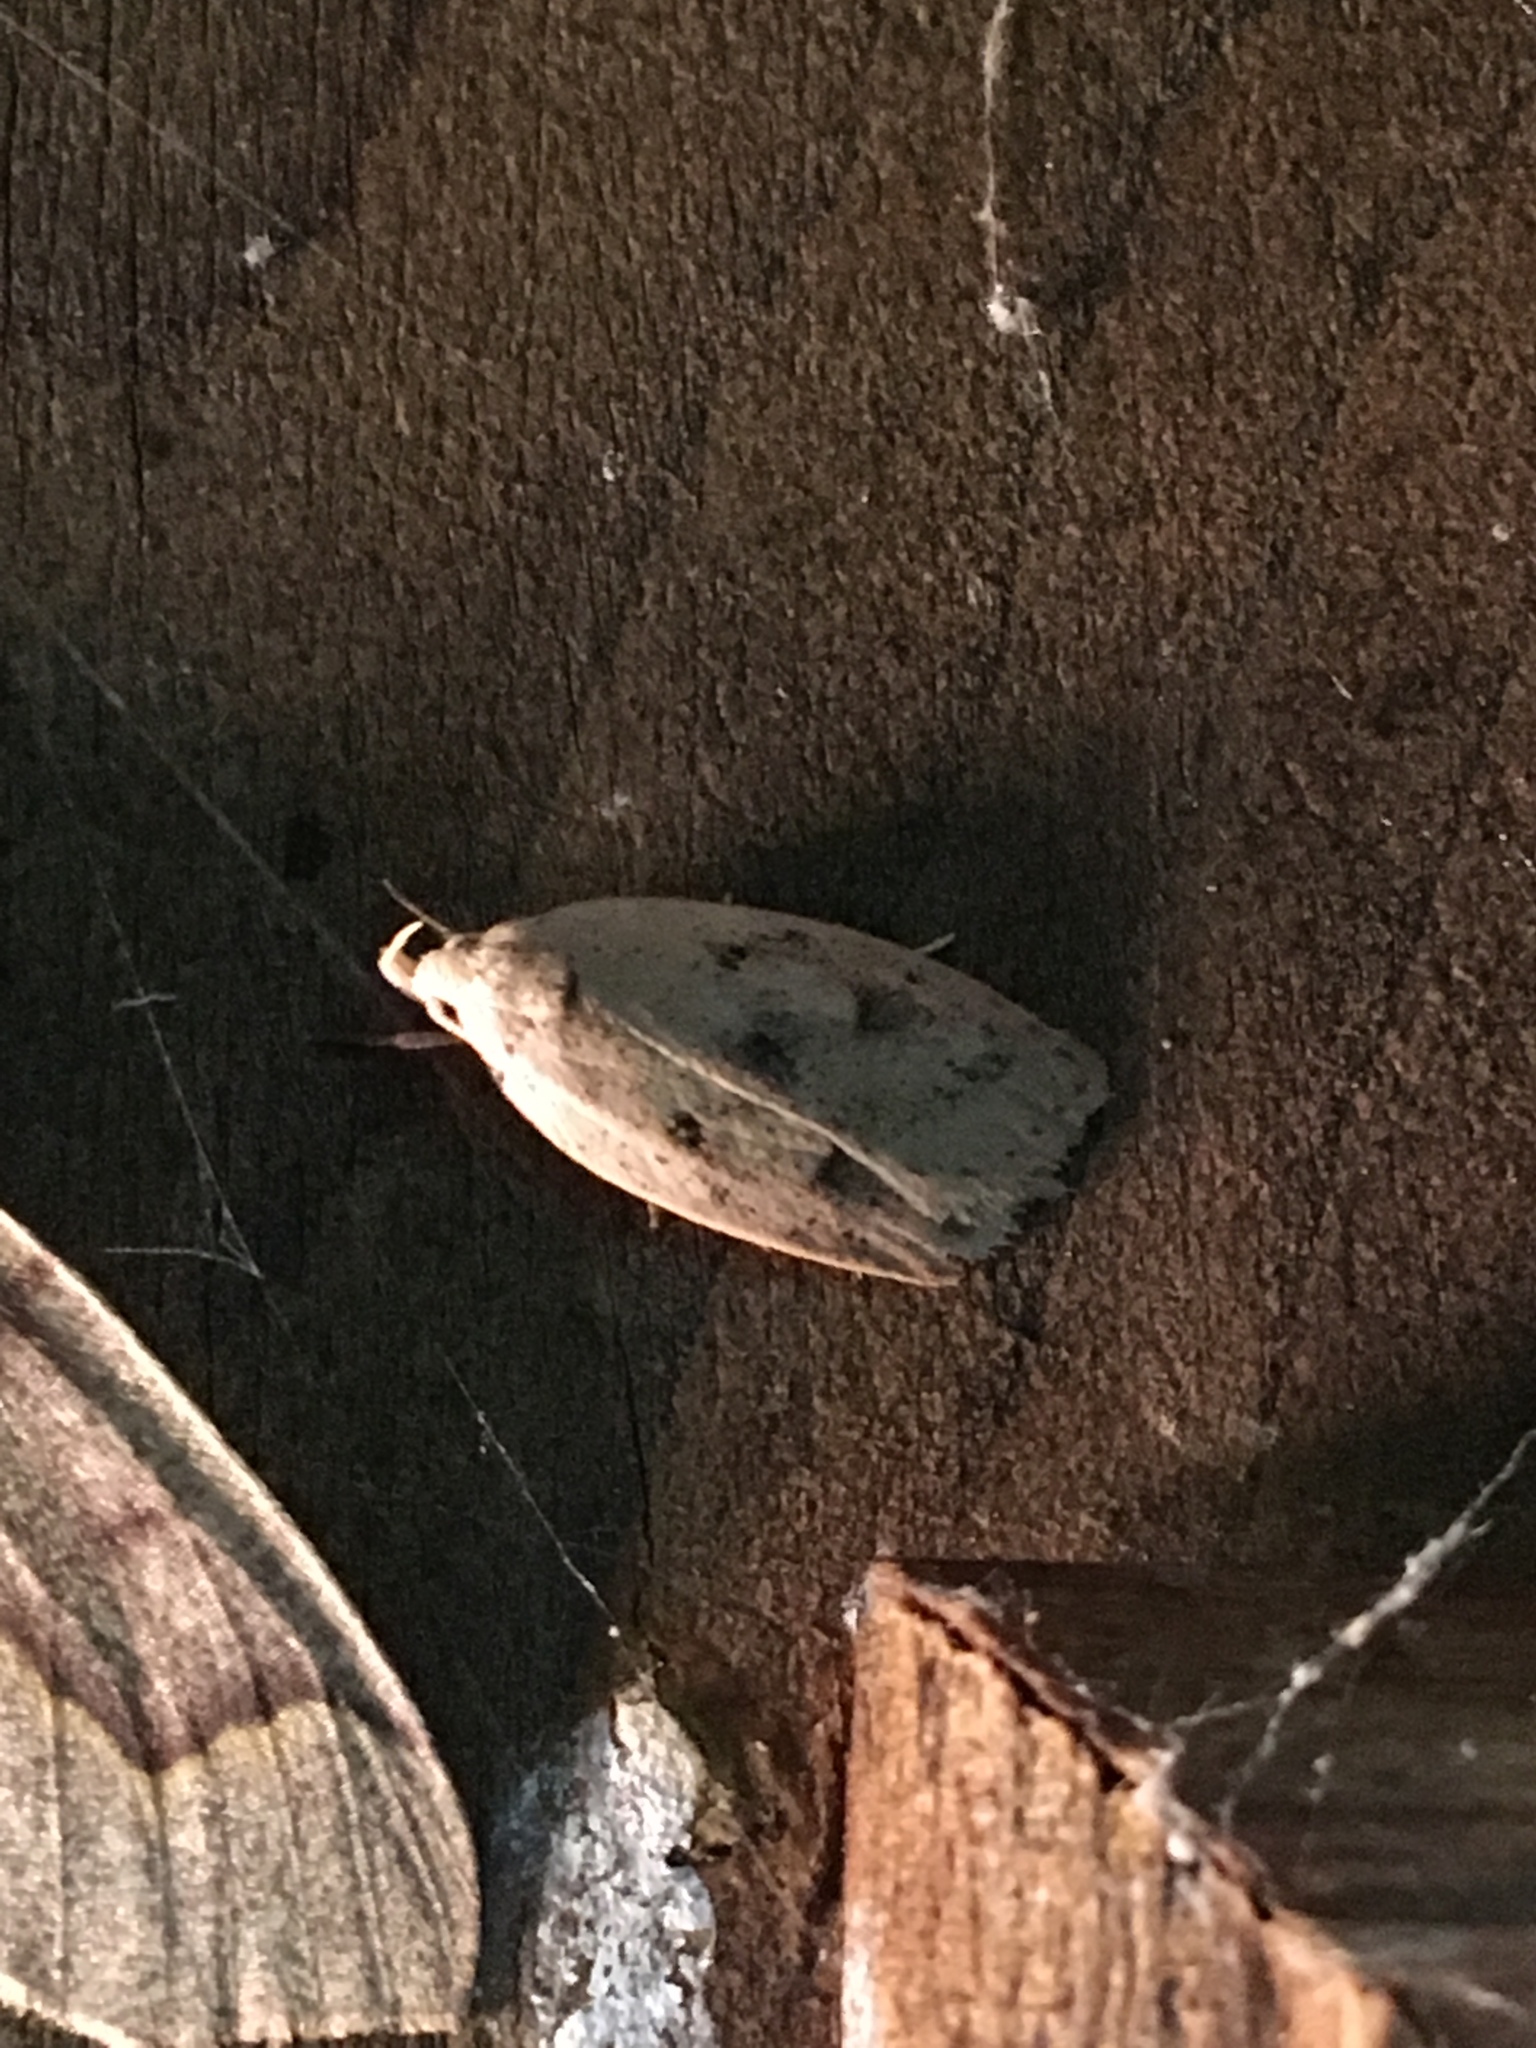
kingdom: Animalia
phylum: Arthropoda
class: Insecta
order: Lepidoptera
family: Peleopodidae
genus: Machimia
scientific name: Machimia tentoriferella
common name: Gold-striped leaftier moth
